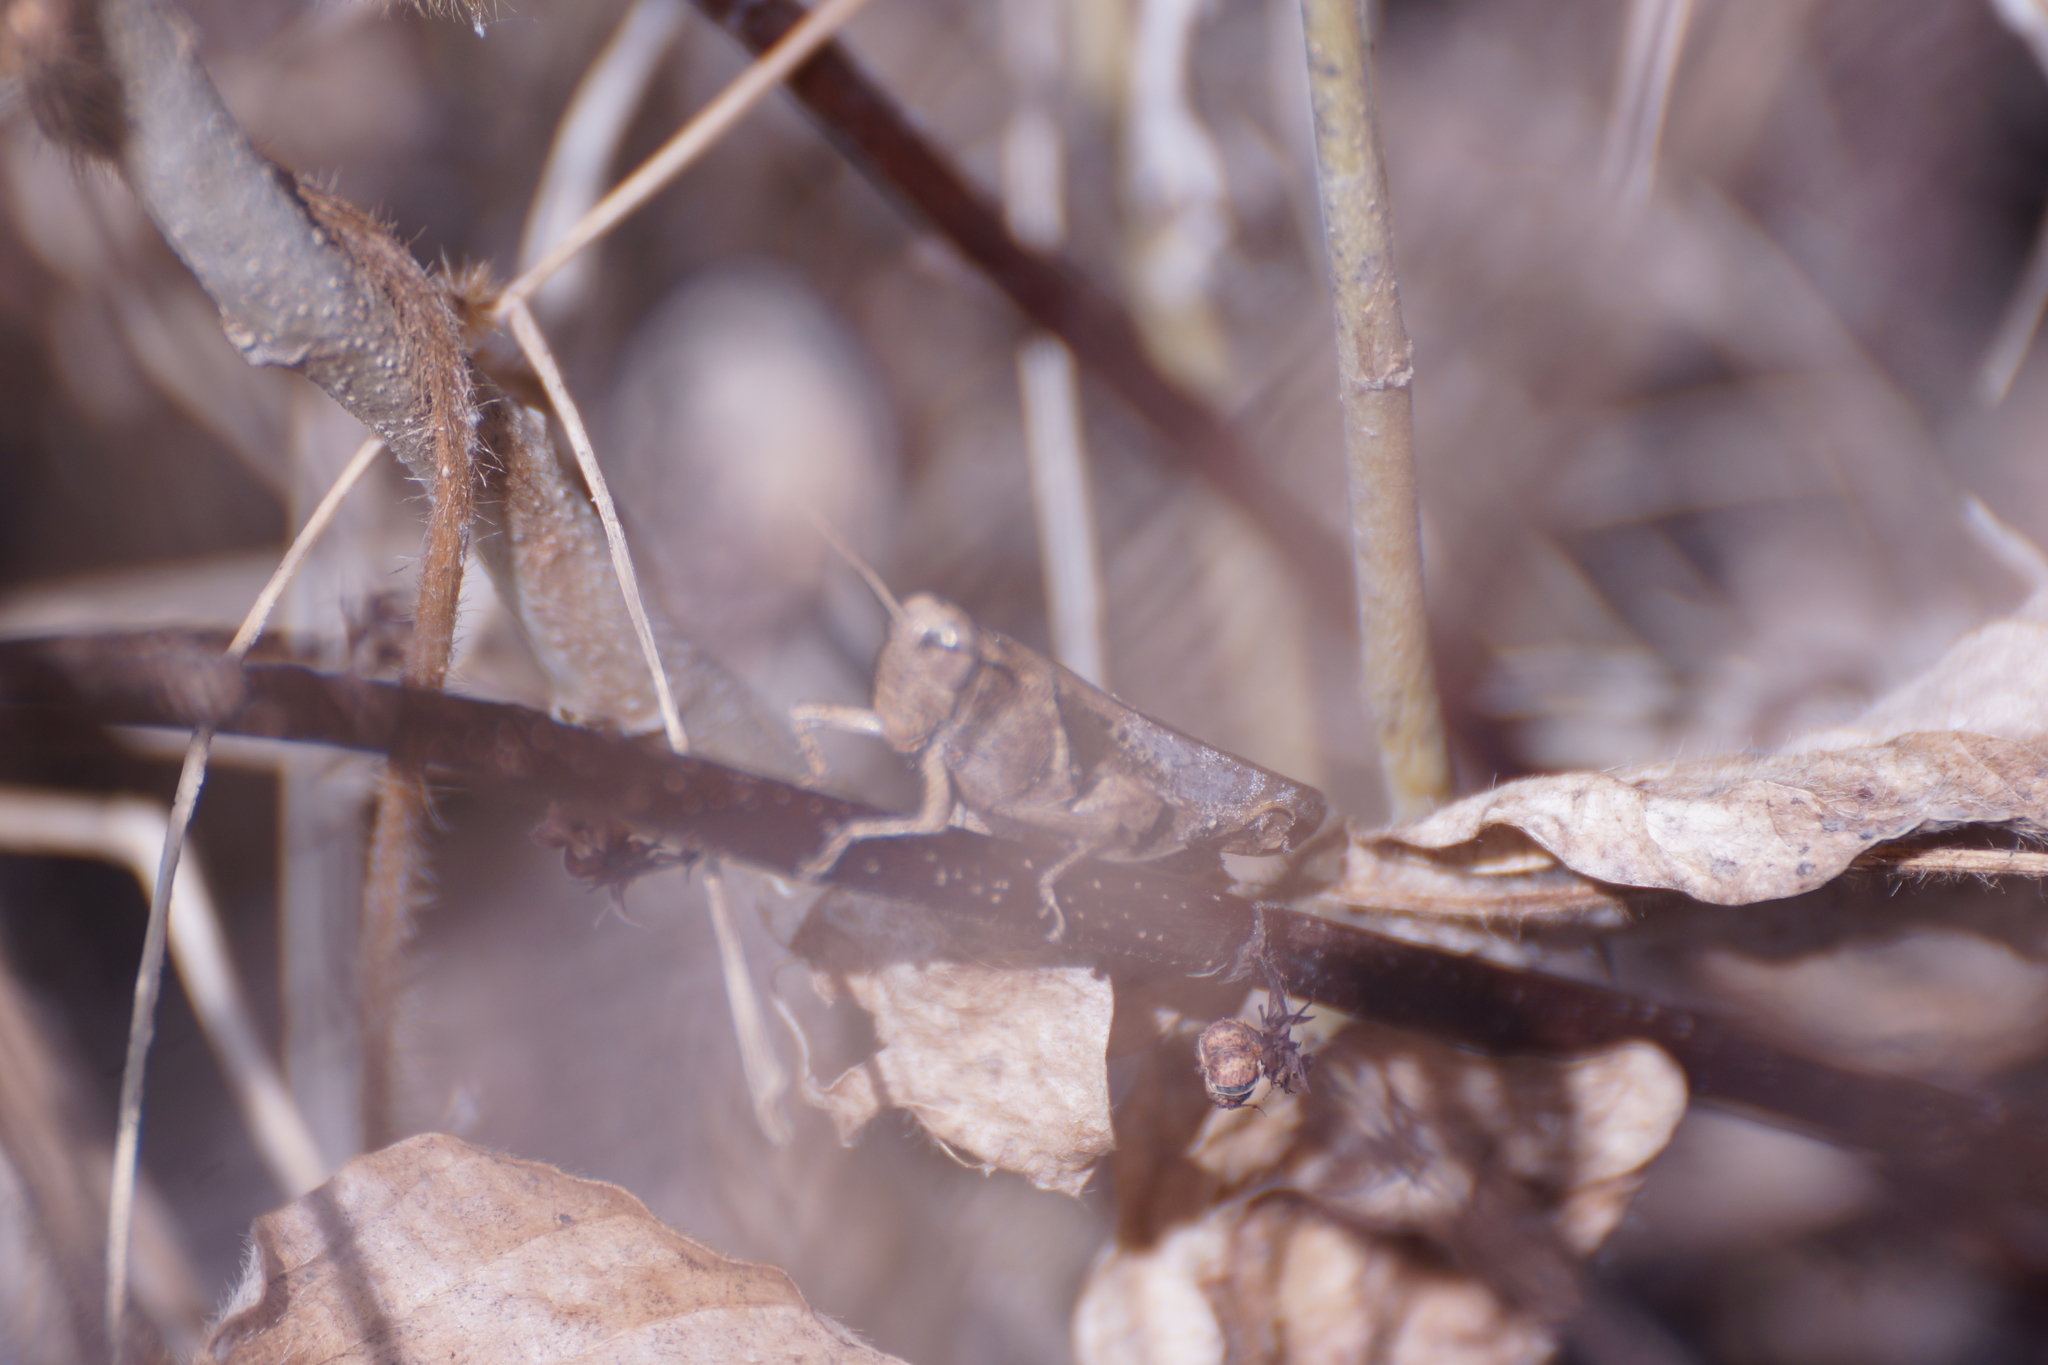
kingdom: Animalia
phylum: Arthropoda
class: Insecta
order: Orthoptera
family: Acrididae
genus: Stenocatantops
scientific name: Stenocatantops angustifrons
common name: Common tropical sharptail
